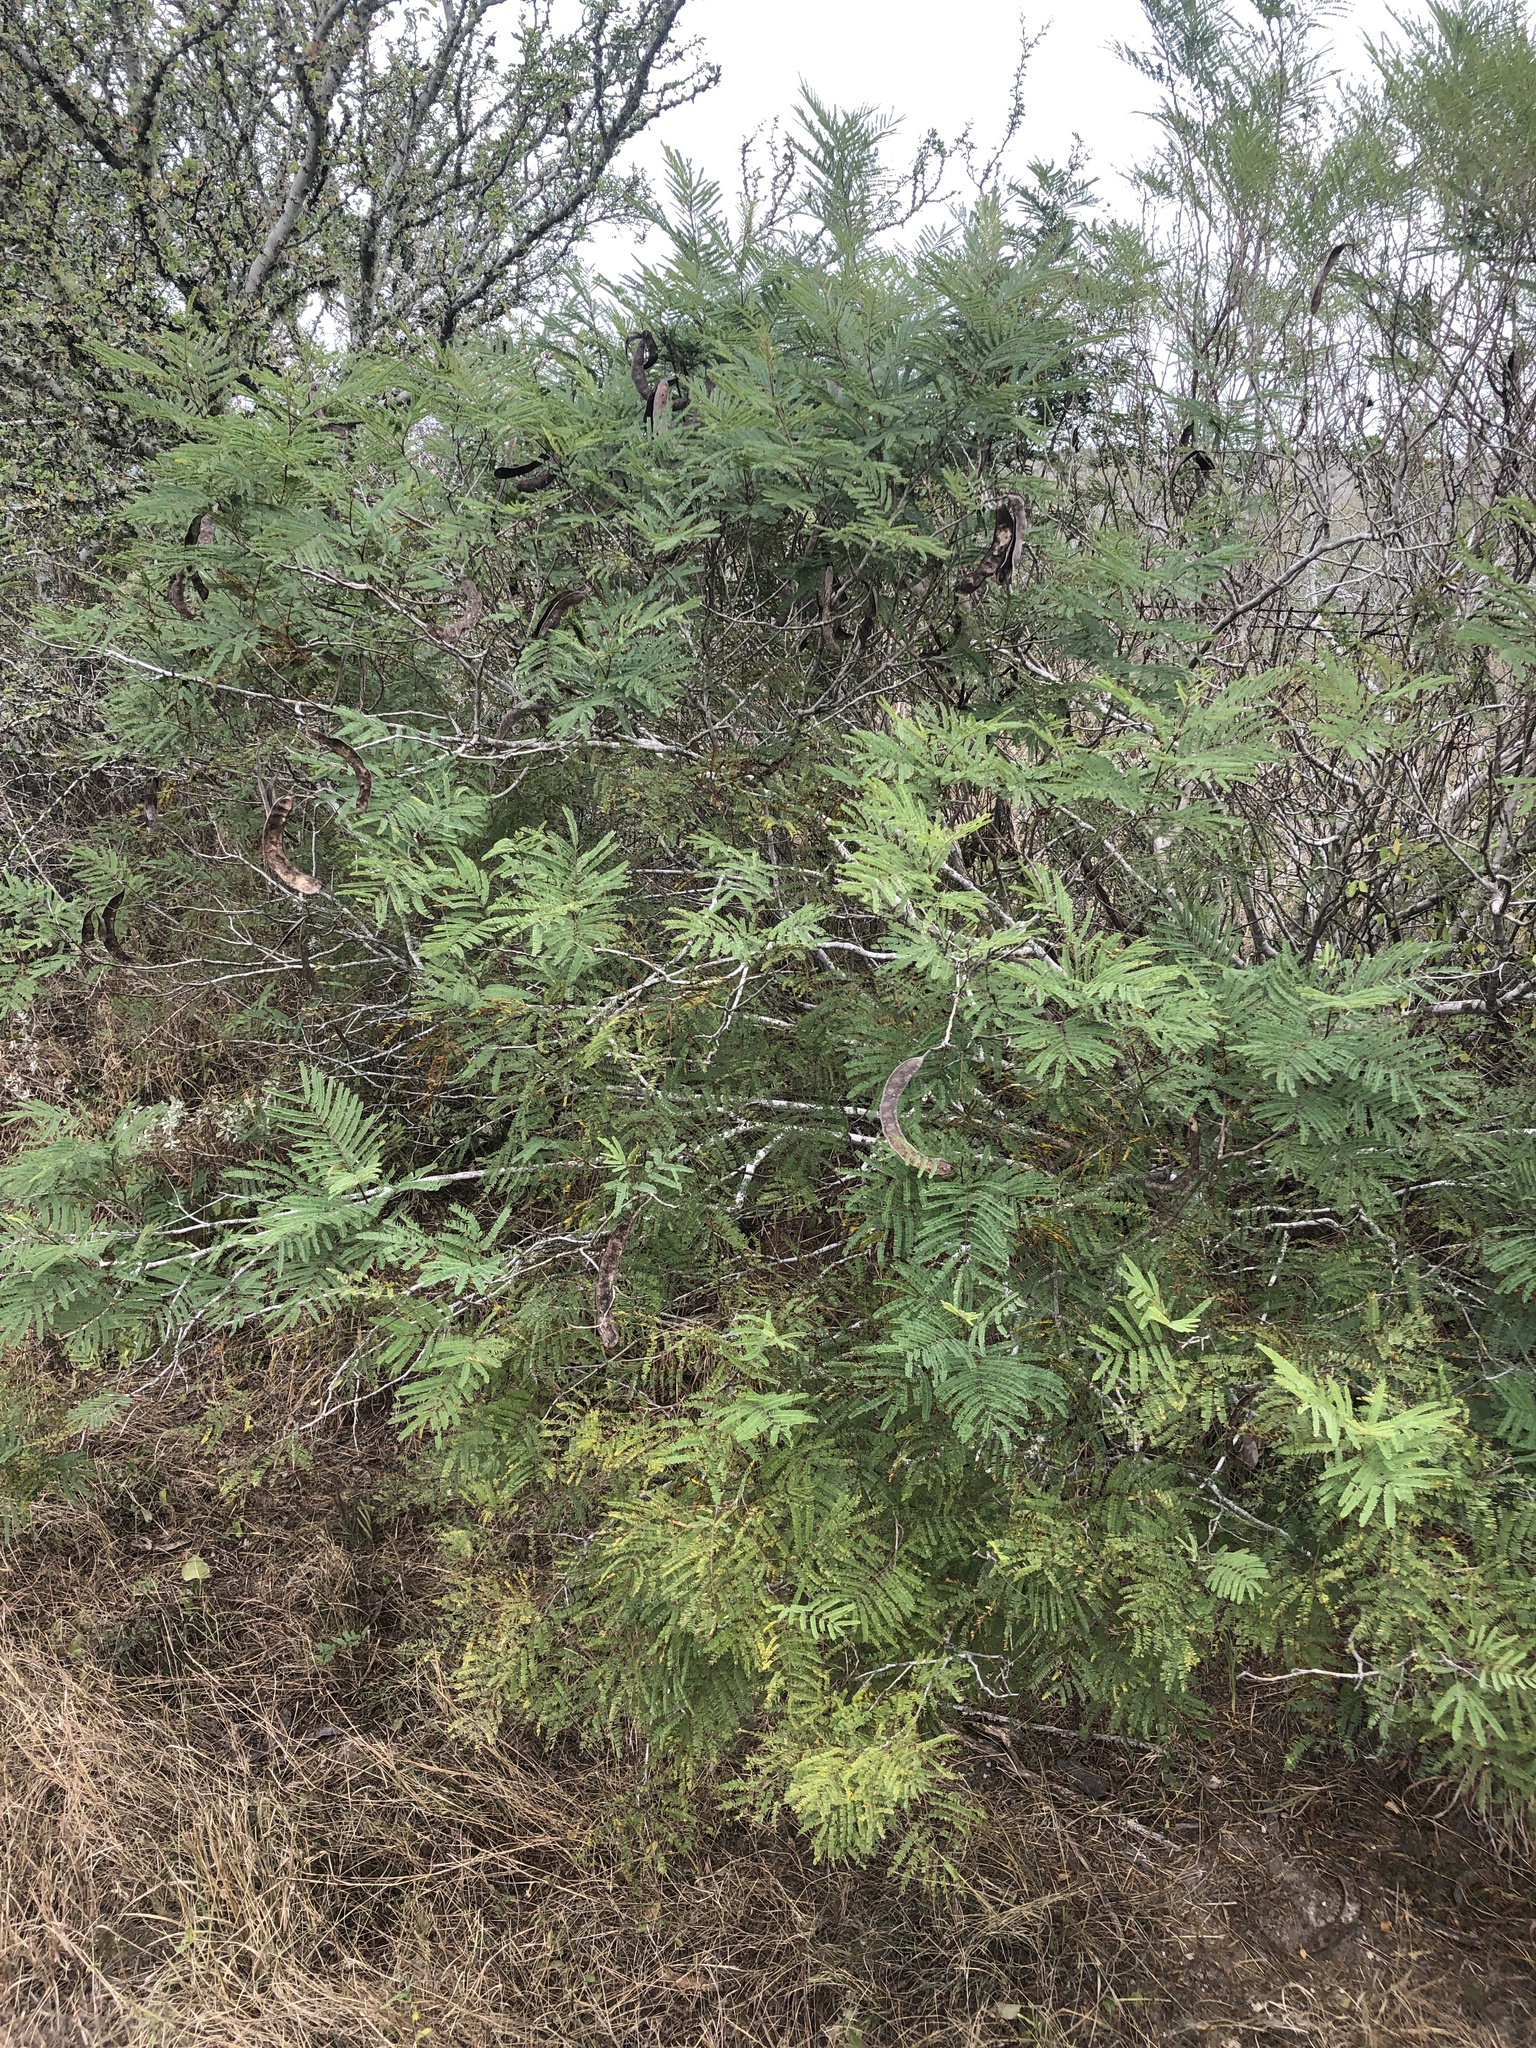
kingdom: Plantae
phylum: Tracheophyta
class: Magnoliopsida
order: Fabales
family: Fabaceae
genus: Senegalia
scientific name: Senegalia berlandieri
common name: Berlandier acacia
